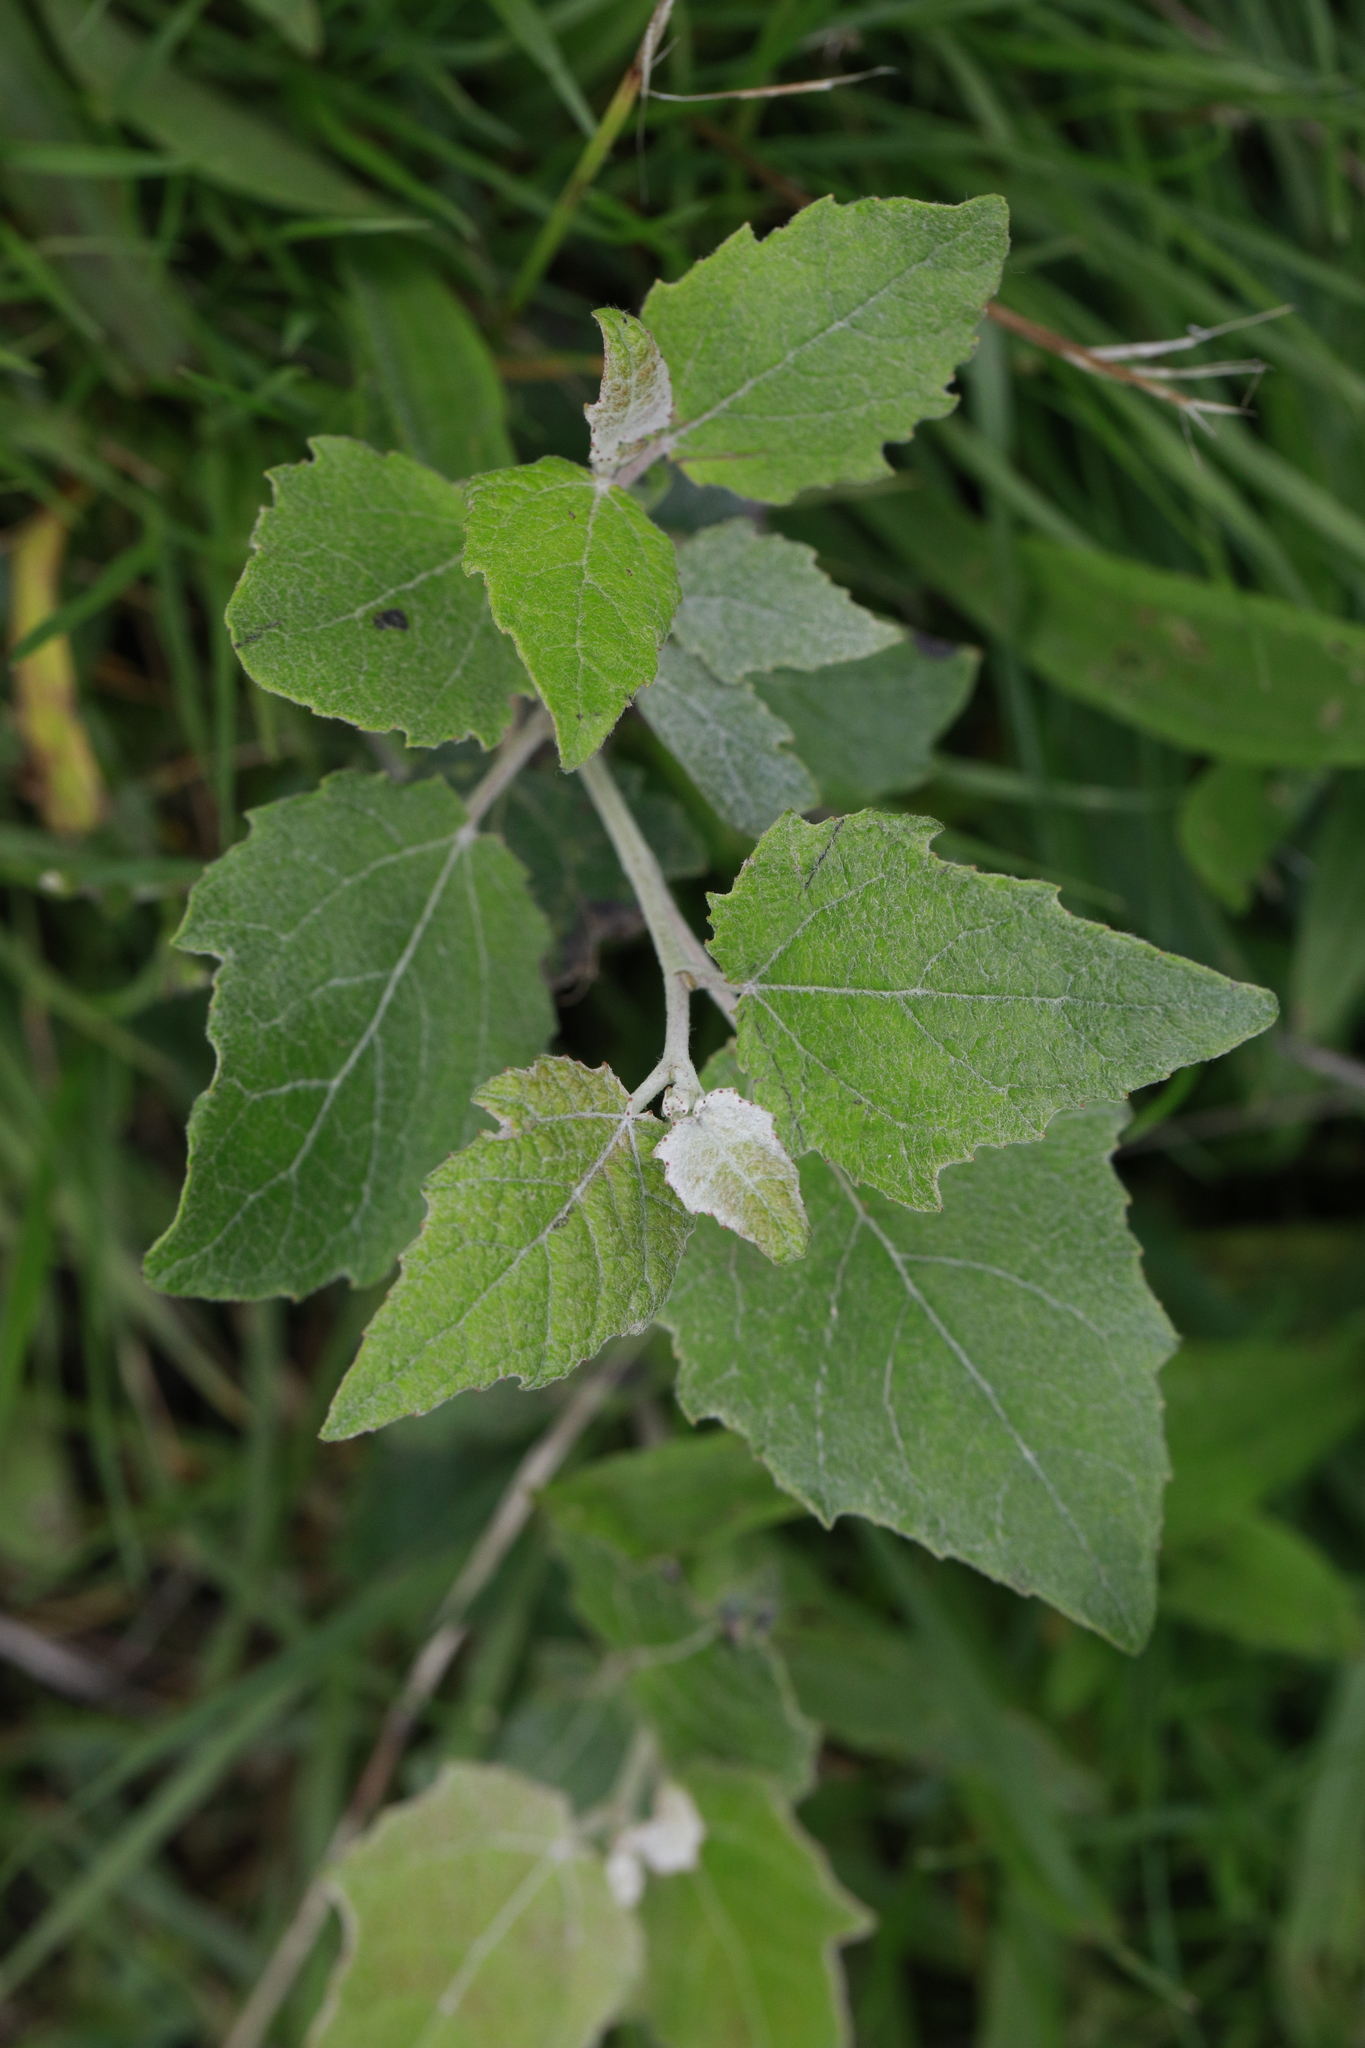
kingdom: Plantae
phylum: Tracheophyta
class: Magnoliopsida
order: Malpighiales
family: Salicaceae
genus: Populus
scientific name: Populus alba
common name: White poplar
